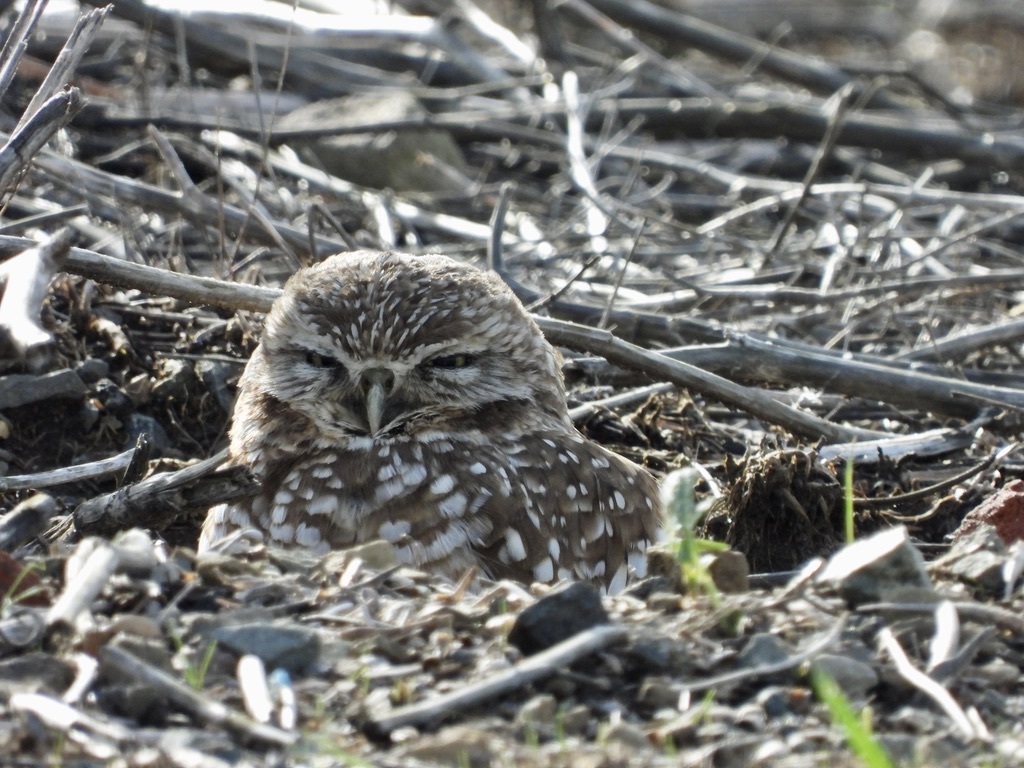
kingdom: Animalia
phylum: Chordata
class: Aves
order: Strigiformes
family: Strigidae
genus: Athene
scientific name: Athene cunicularia
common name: Burrowing owl
